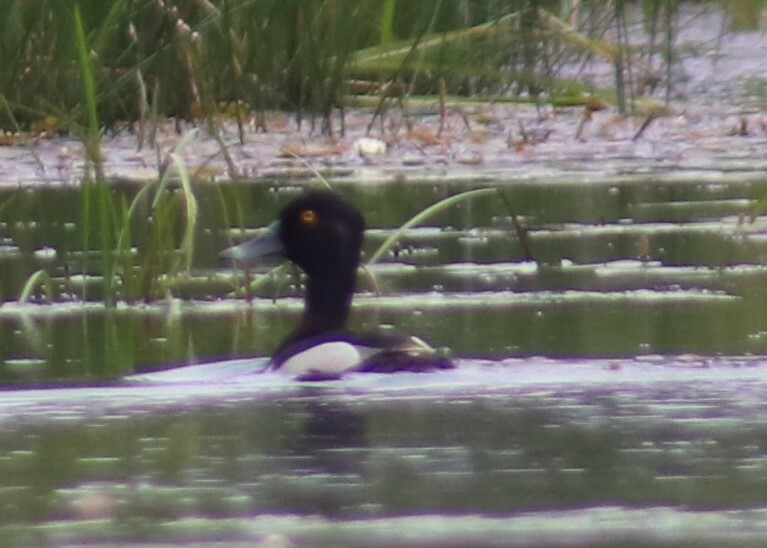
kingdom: Animalia
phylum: Chordata
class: Aves
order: Anseriformes
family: Anatidae
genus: Aythya
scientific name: Aythya collaris
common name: Ring-necked duck
